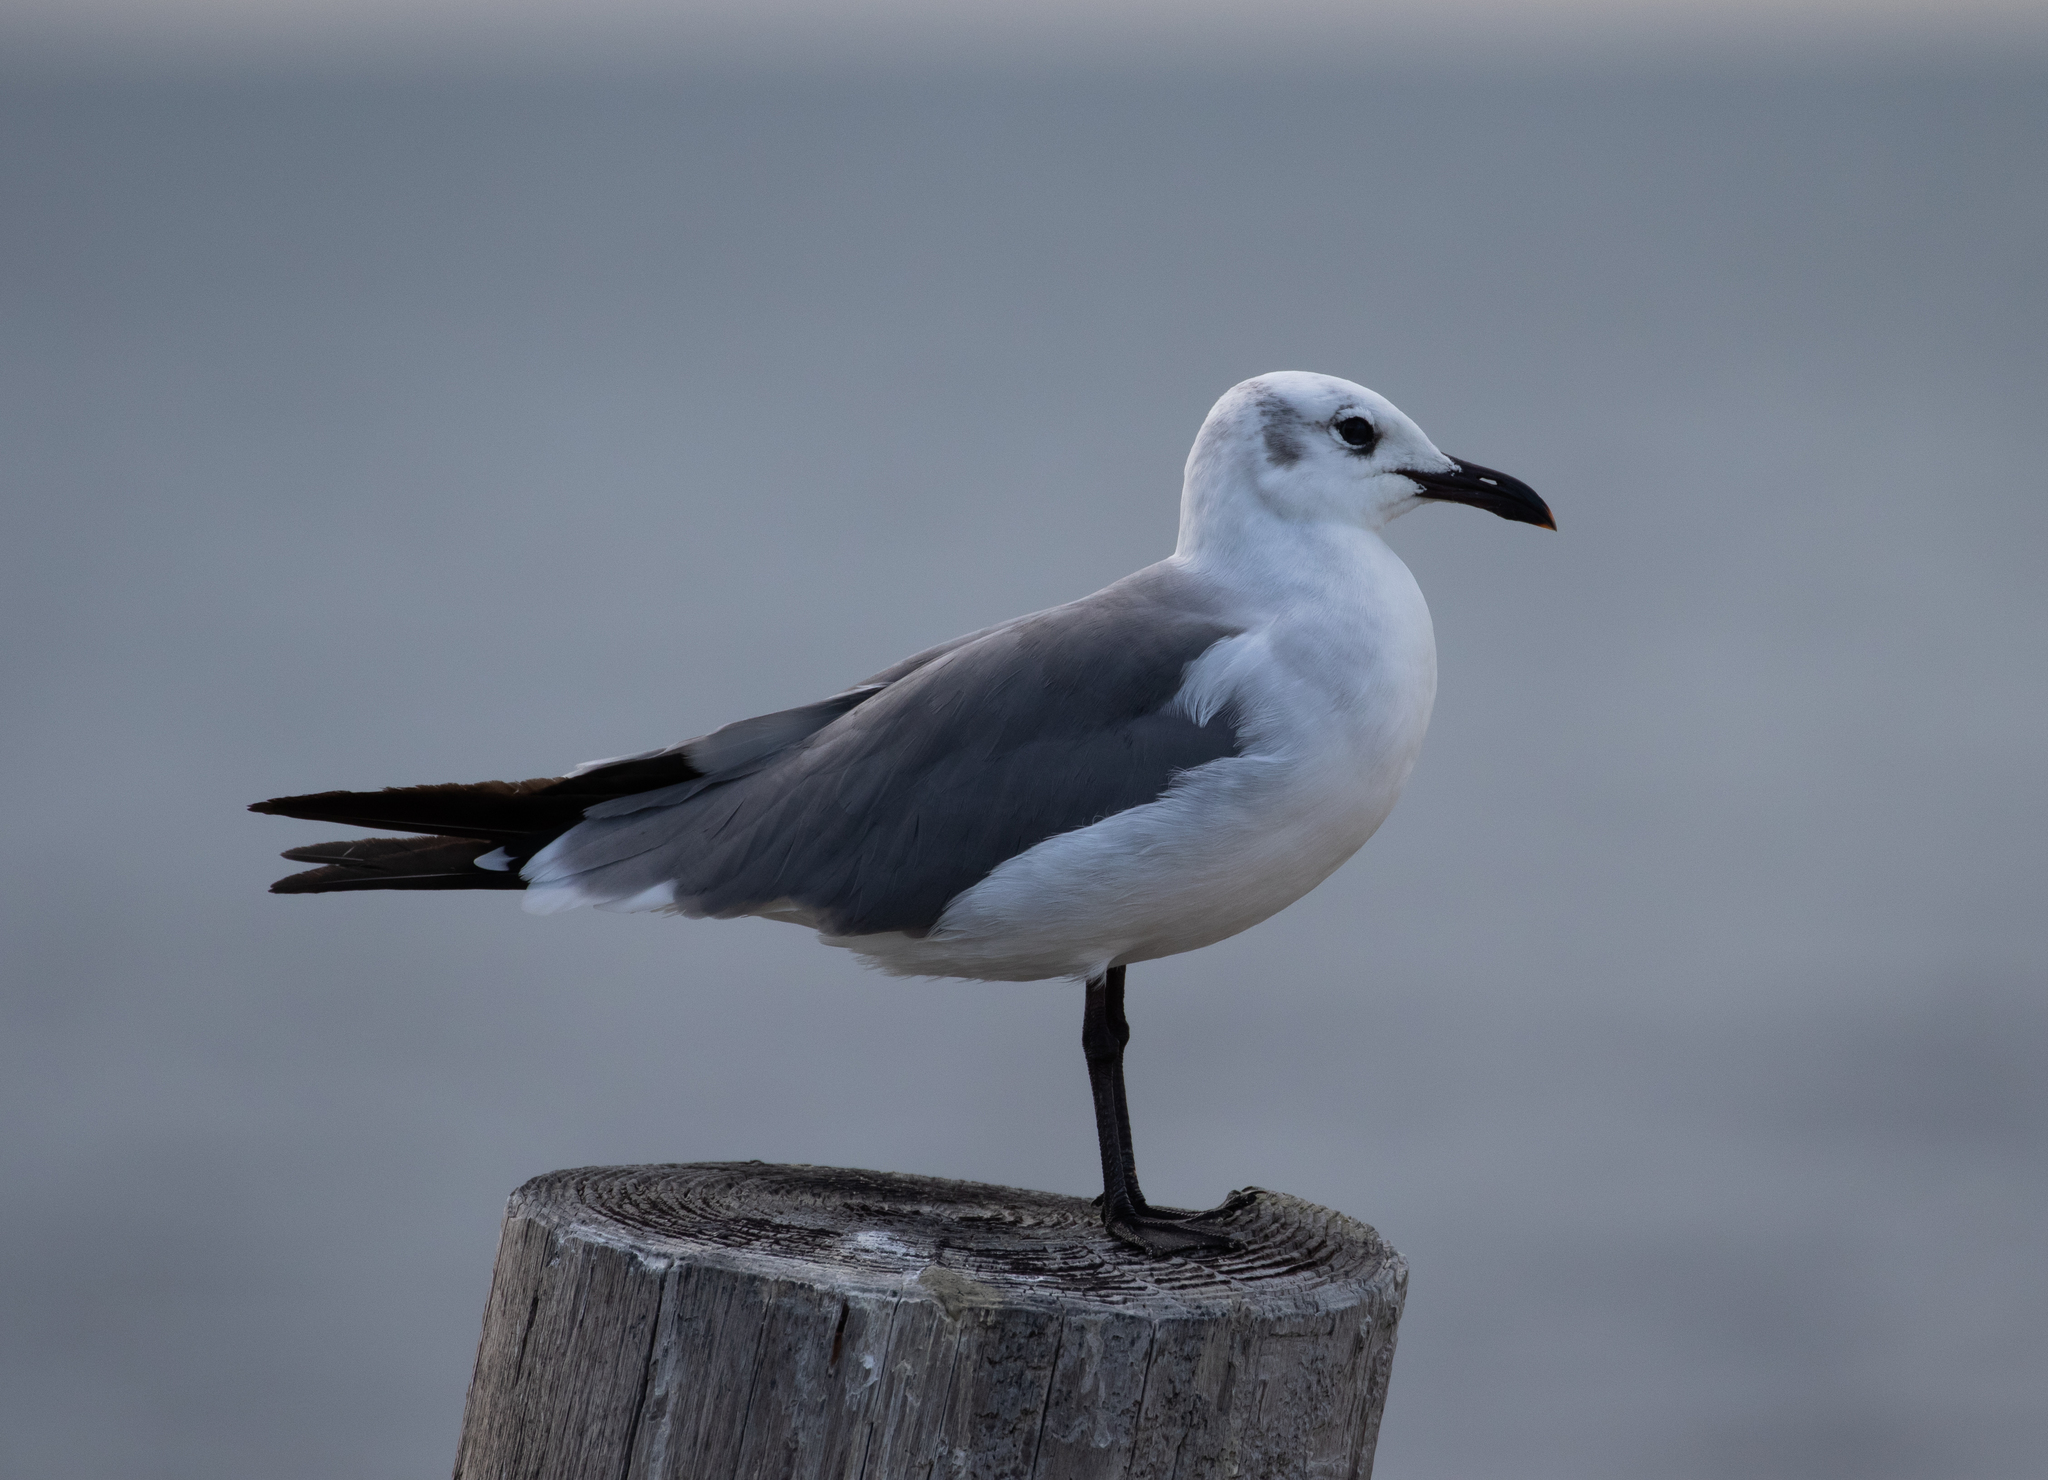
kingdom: Animalia
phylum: Chordata
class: Aves
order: Charadriiformes
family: Laridae
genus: Leucophaeus
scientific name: Leucophaeus atricilla
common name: Laughing gull
